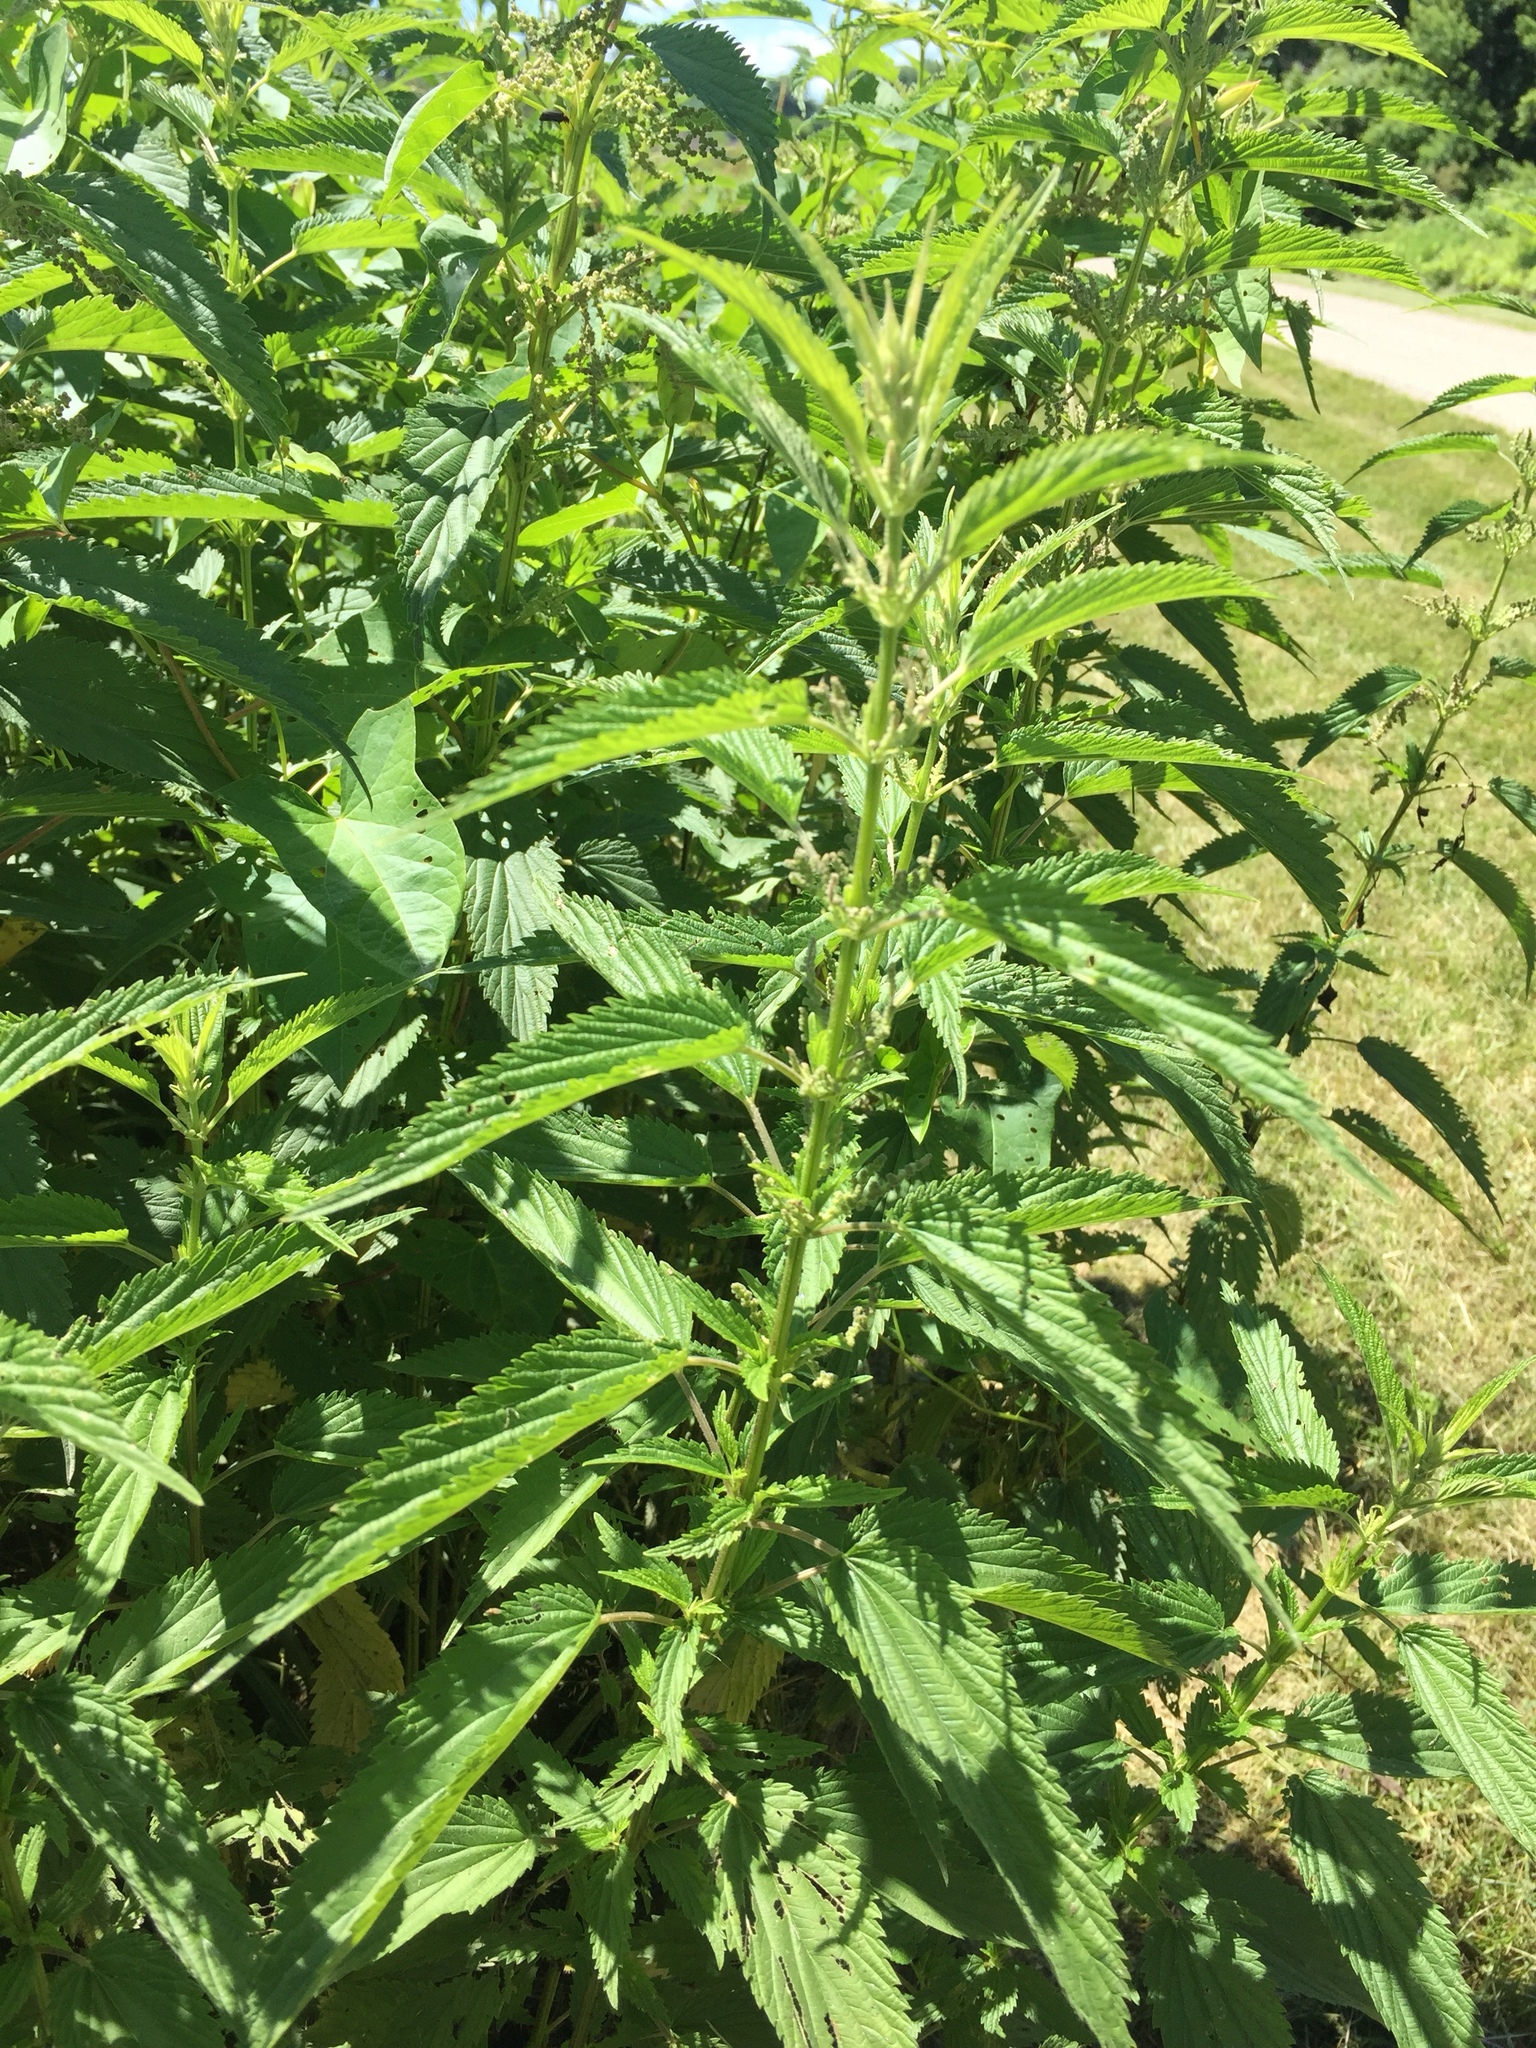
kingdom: Plantae
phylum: Tracheophyta
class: Magnoliopsida
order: Rosales
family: Urticaceae
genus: Urtica
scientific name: Urtica dioica
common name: Common nettle
